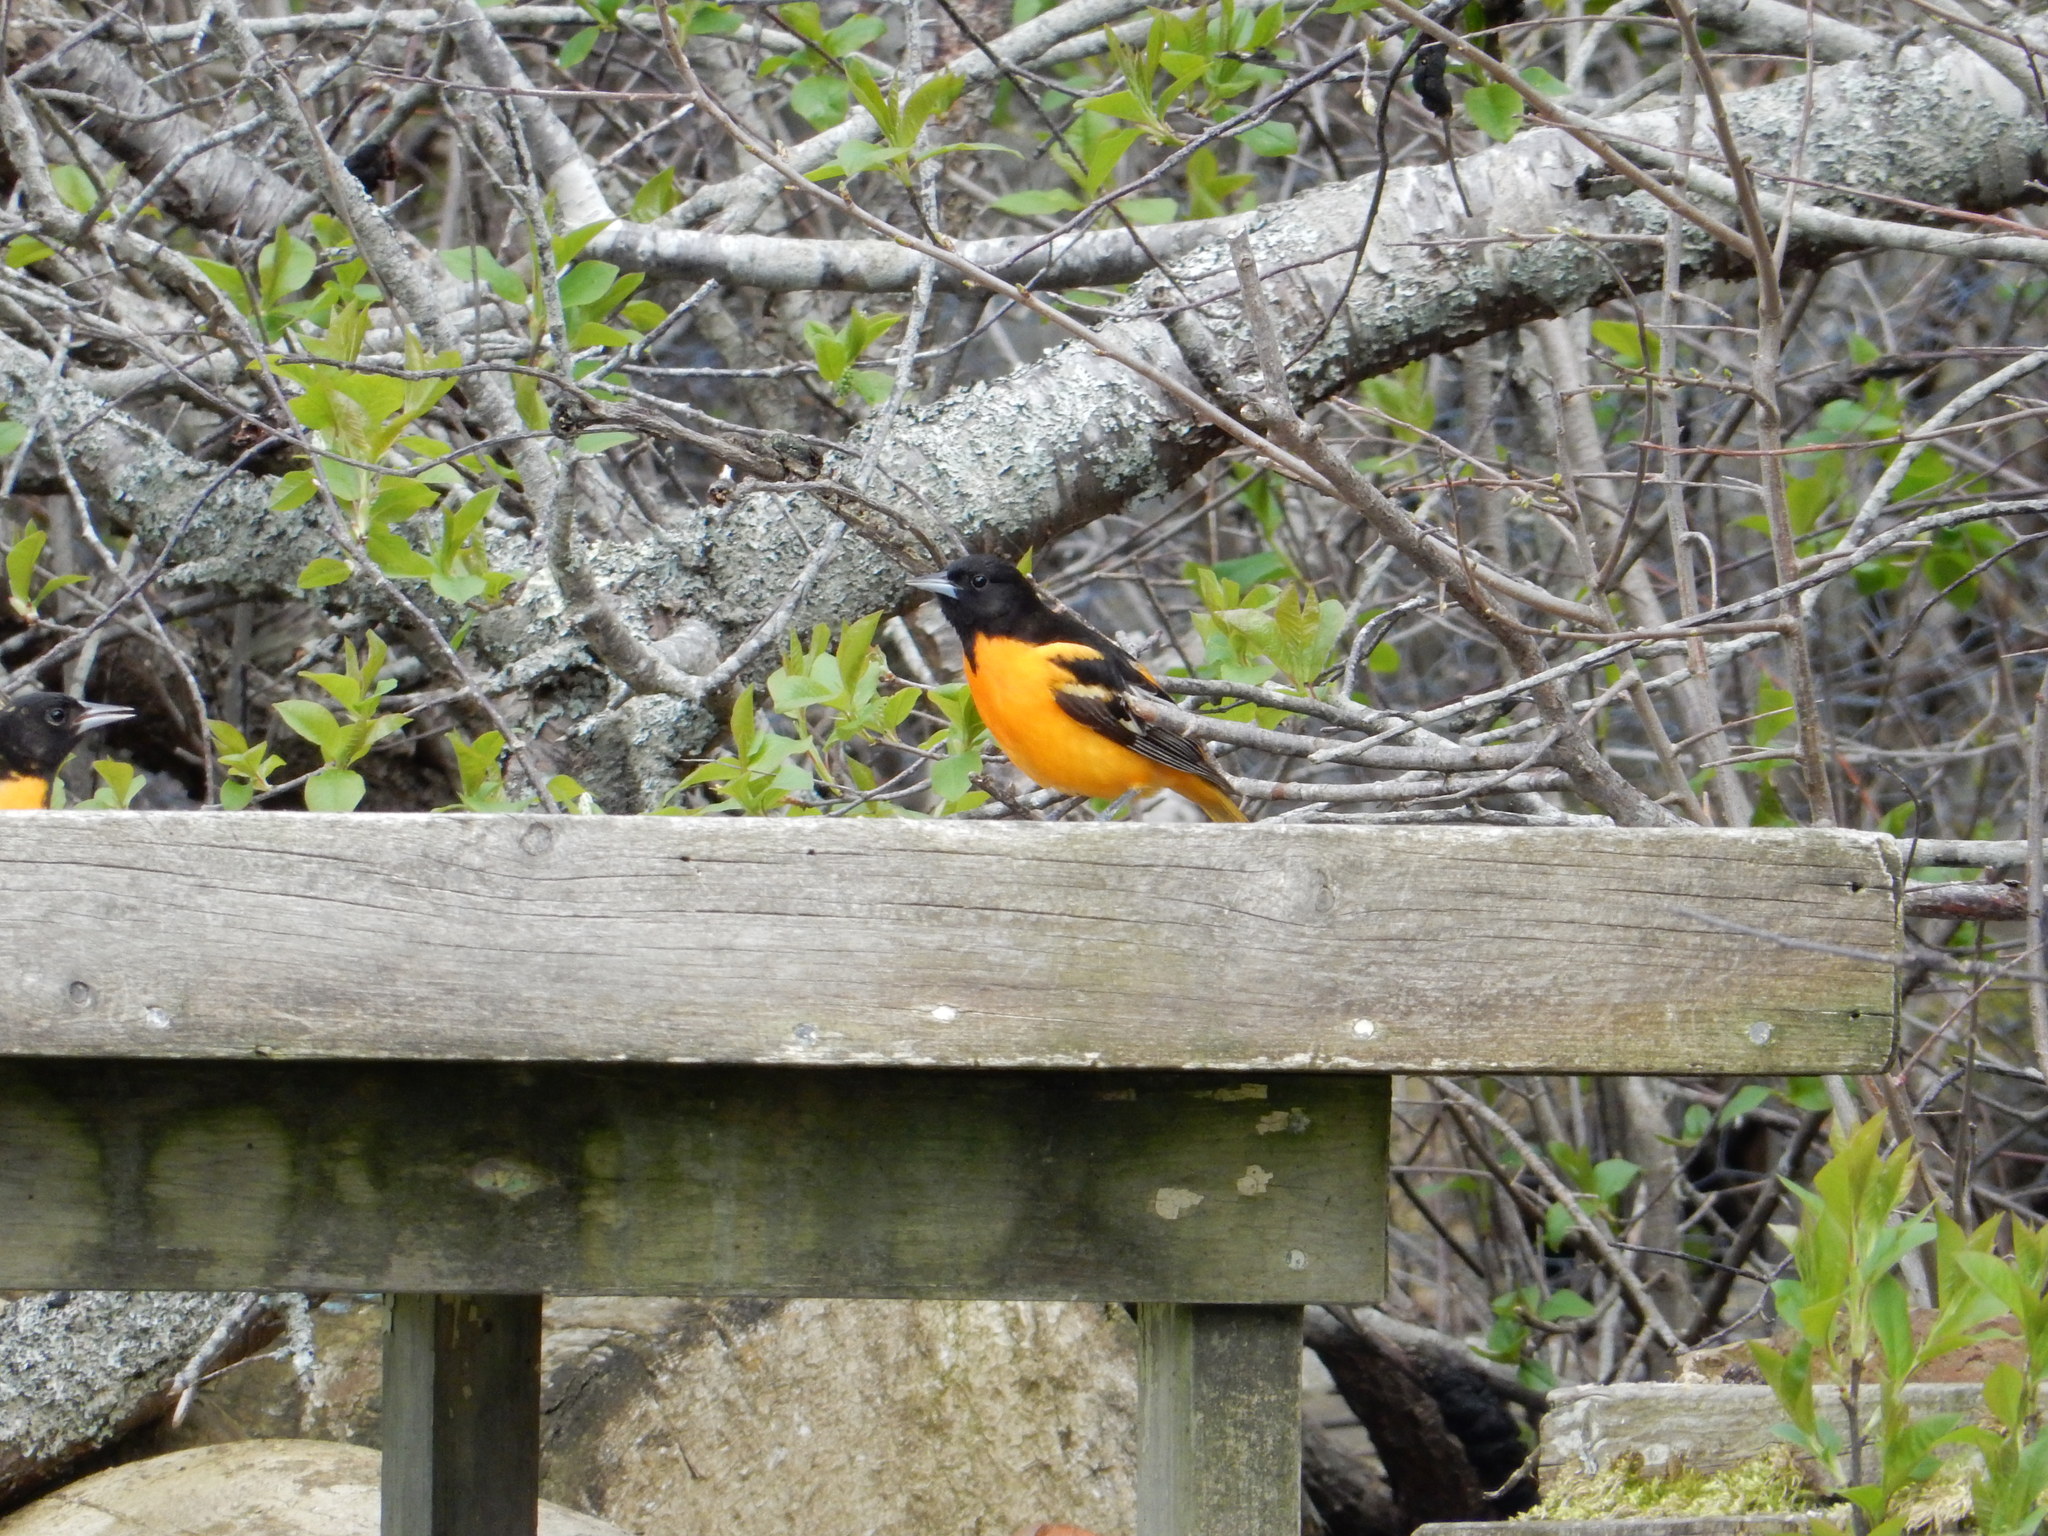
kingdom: Animalia
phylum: Chordata
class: Aves
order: Passeriformes
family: Icteridae
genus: Icterus
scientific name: Icterus galbula
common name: Baltimore oriole
